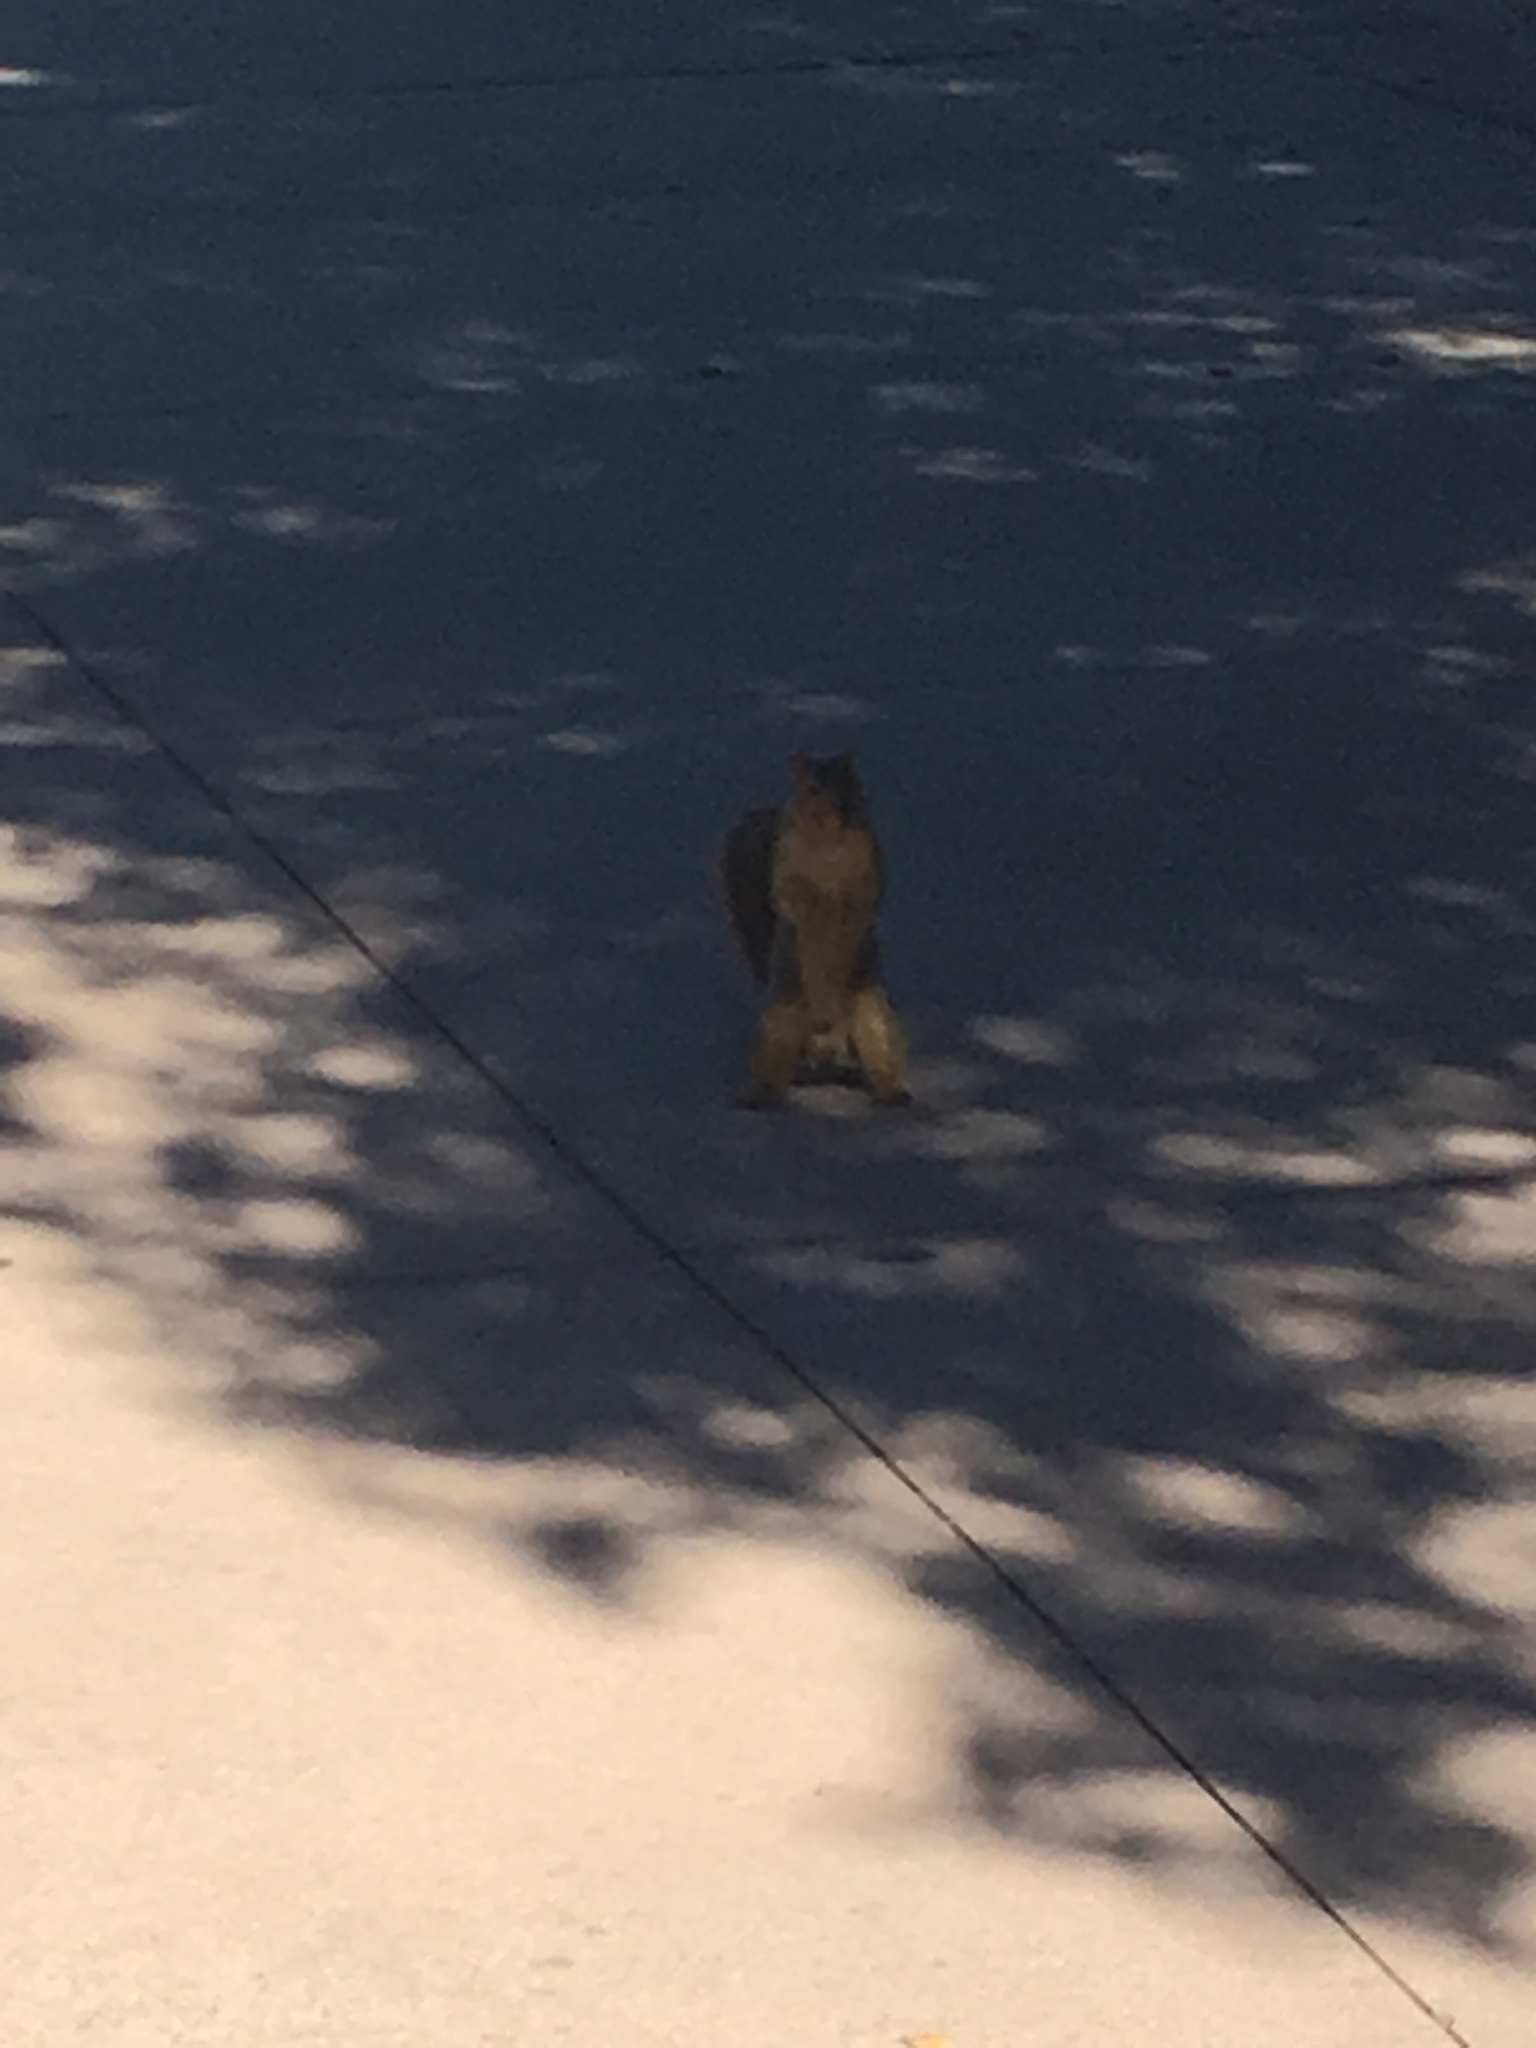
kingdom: Animalia
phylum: Chordata
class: Mammalia
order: Rodentia
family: Sciuridae
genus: Sciurus
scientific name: Sciurus niger
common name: Fox squirrel
